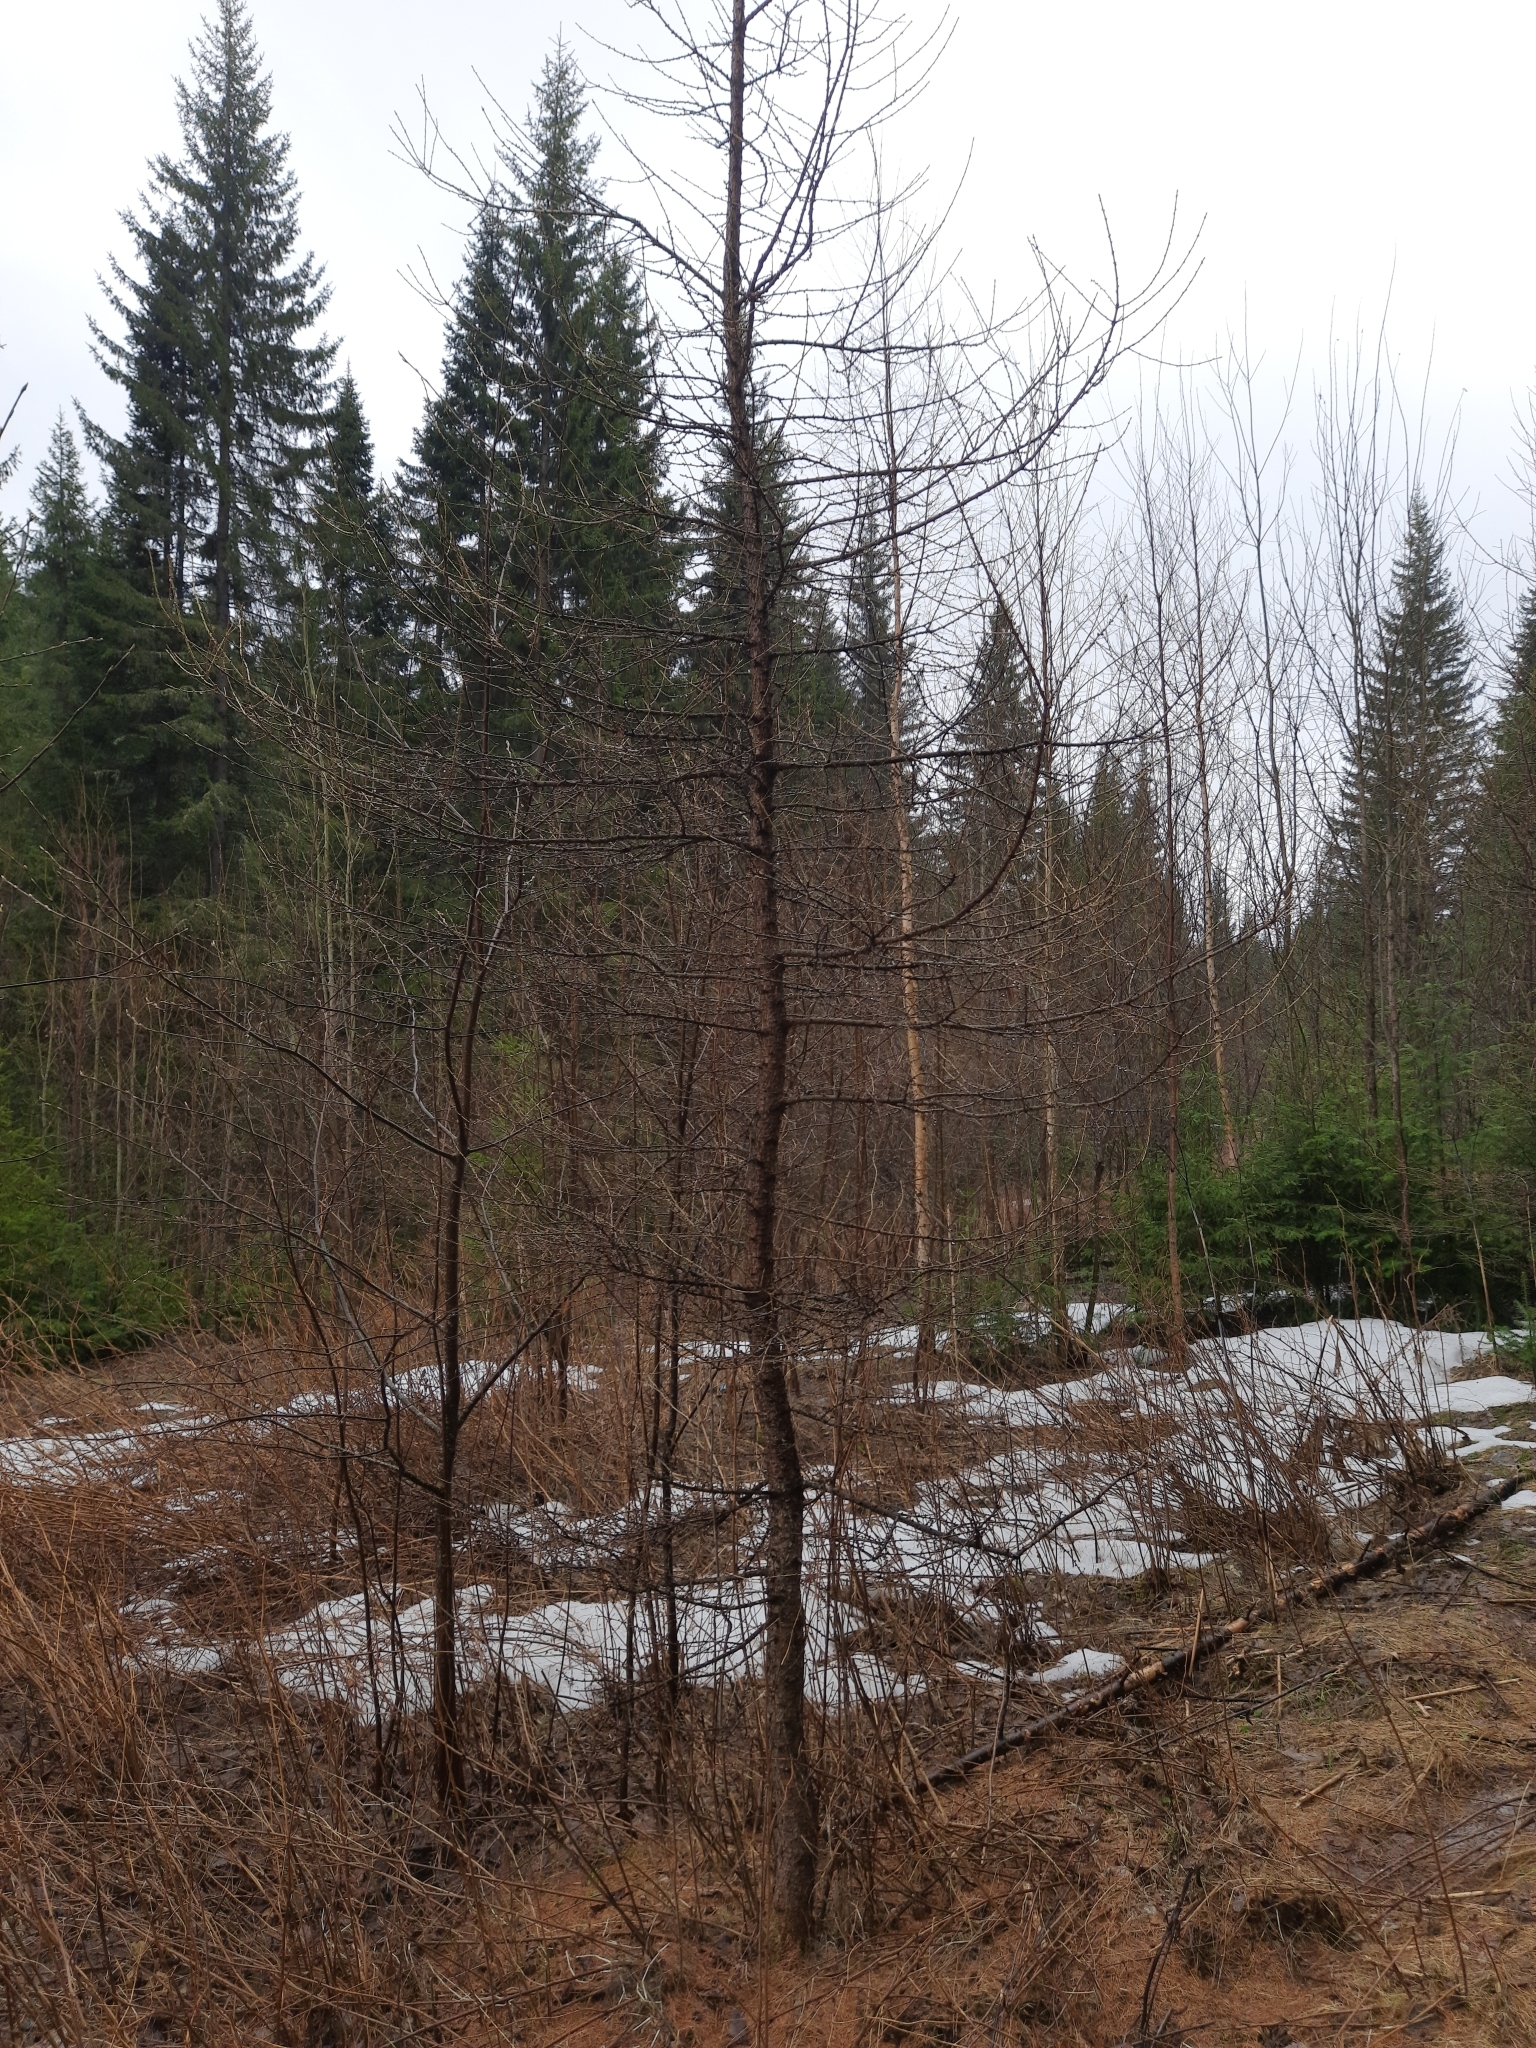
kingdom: Plantae
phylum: Tracheophyta
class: Pinopsida
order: Pinales
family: Pinaceae
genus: Larix
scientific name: Larix sibirica
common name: Siberian larch
